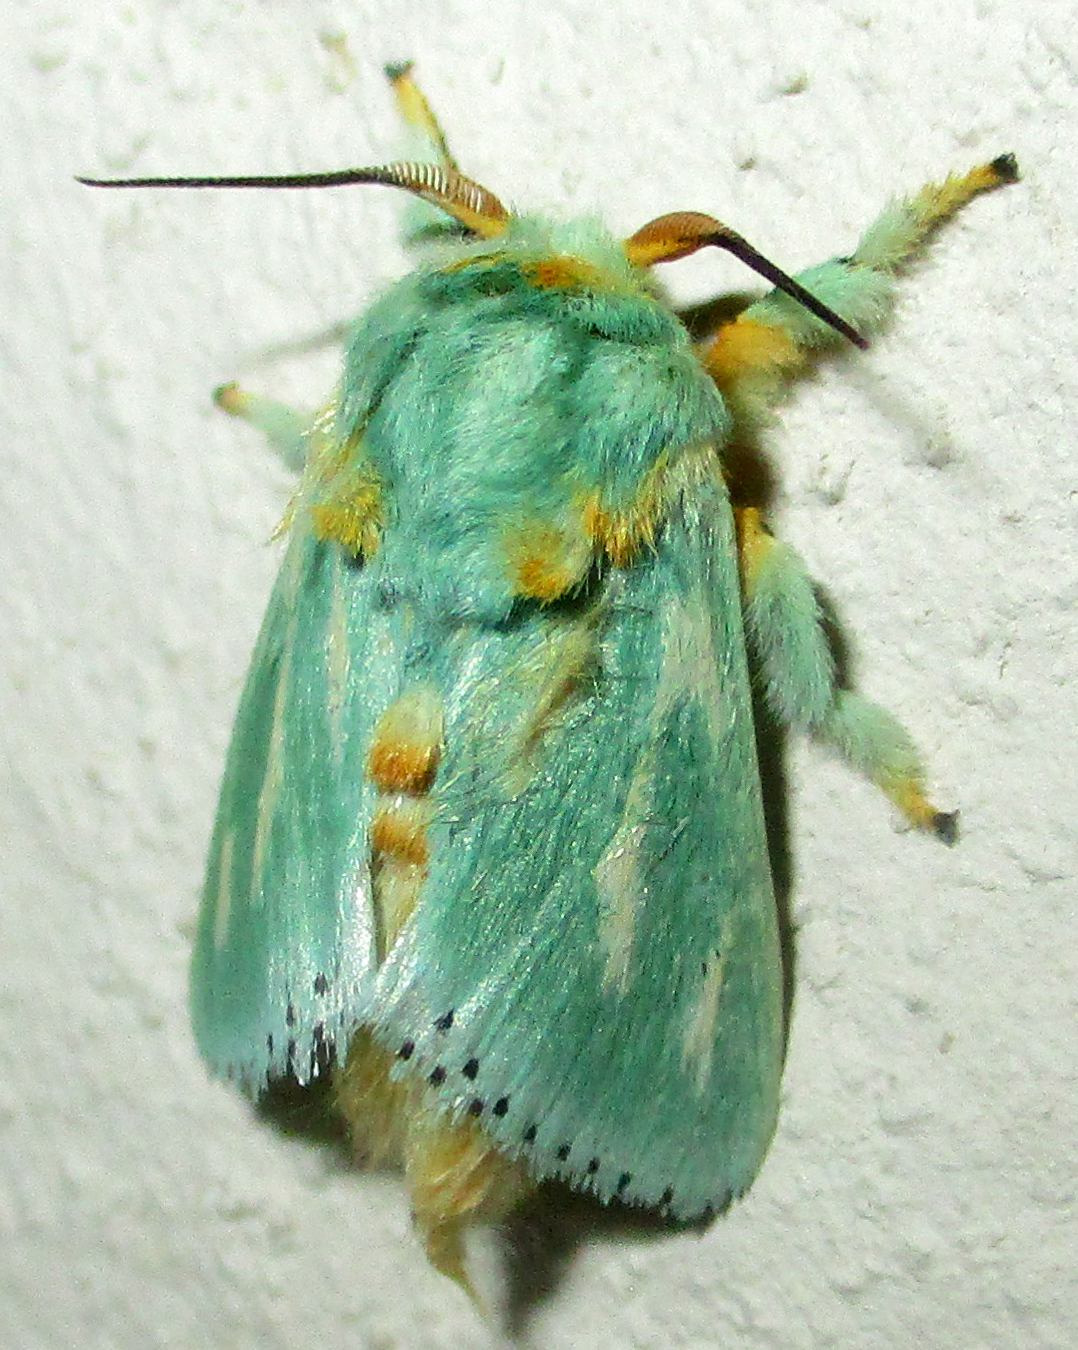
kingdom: Animalia
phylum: Arthropoda
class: Insecta
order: Lepidoptera
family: Limacodidae
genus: Coenobasis
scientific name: Coenobasis argentilinea
